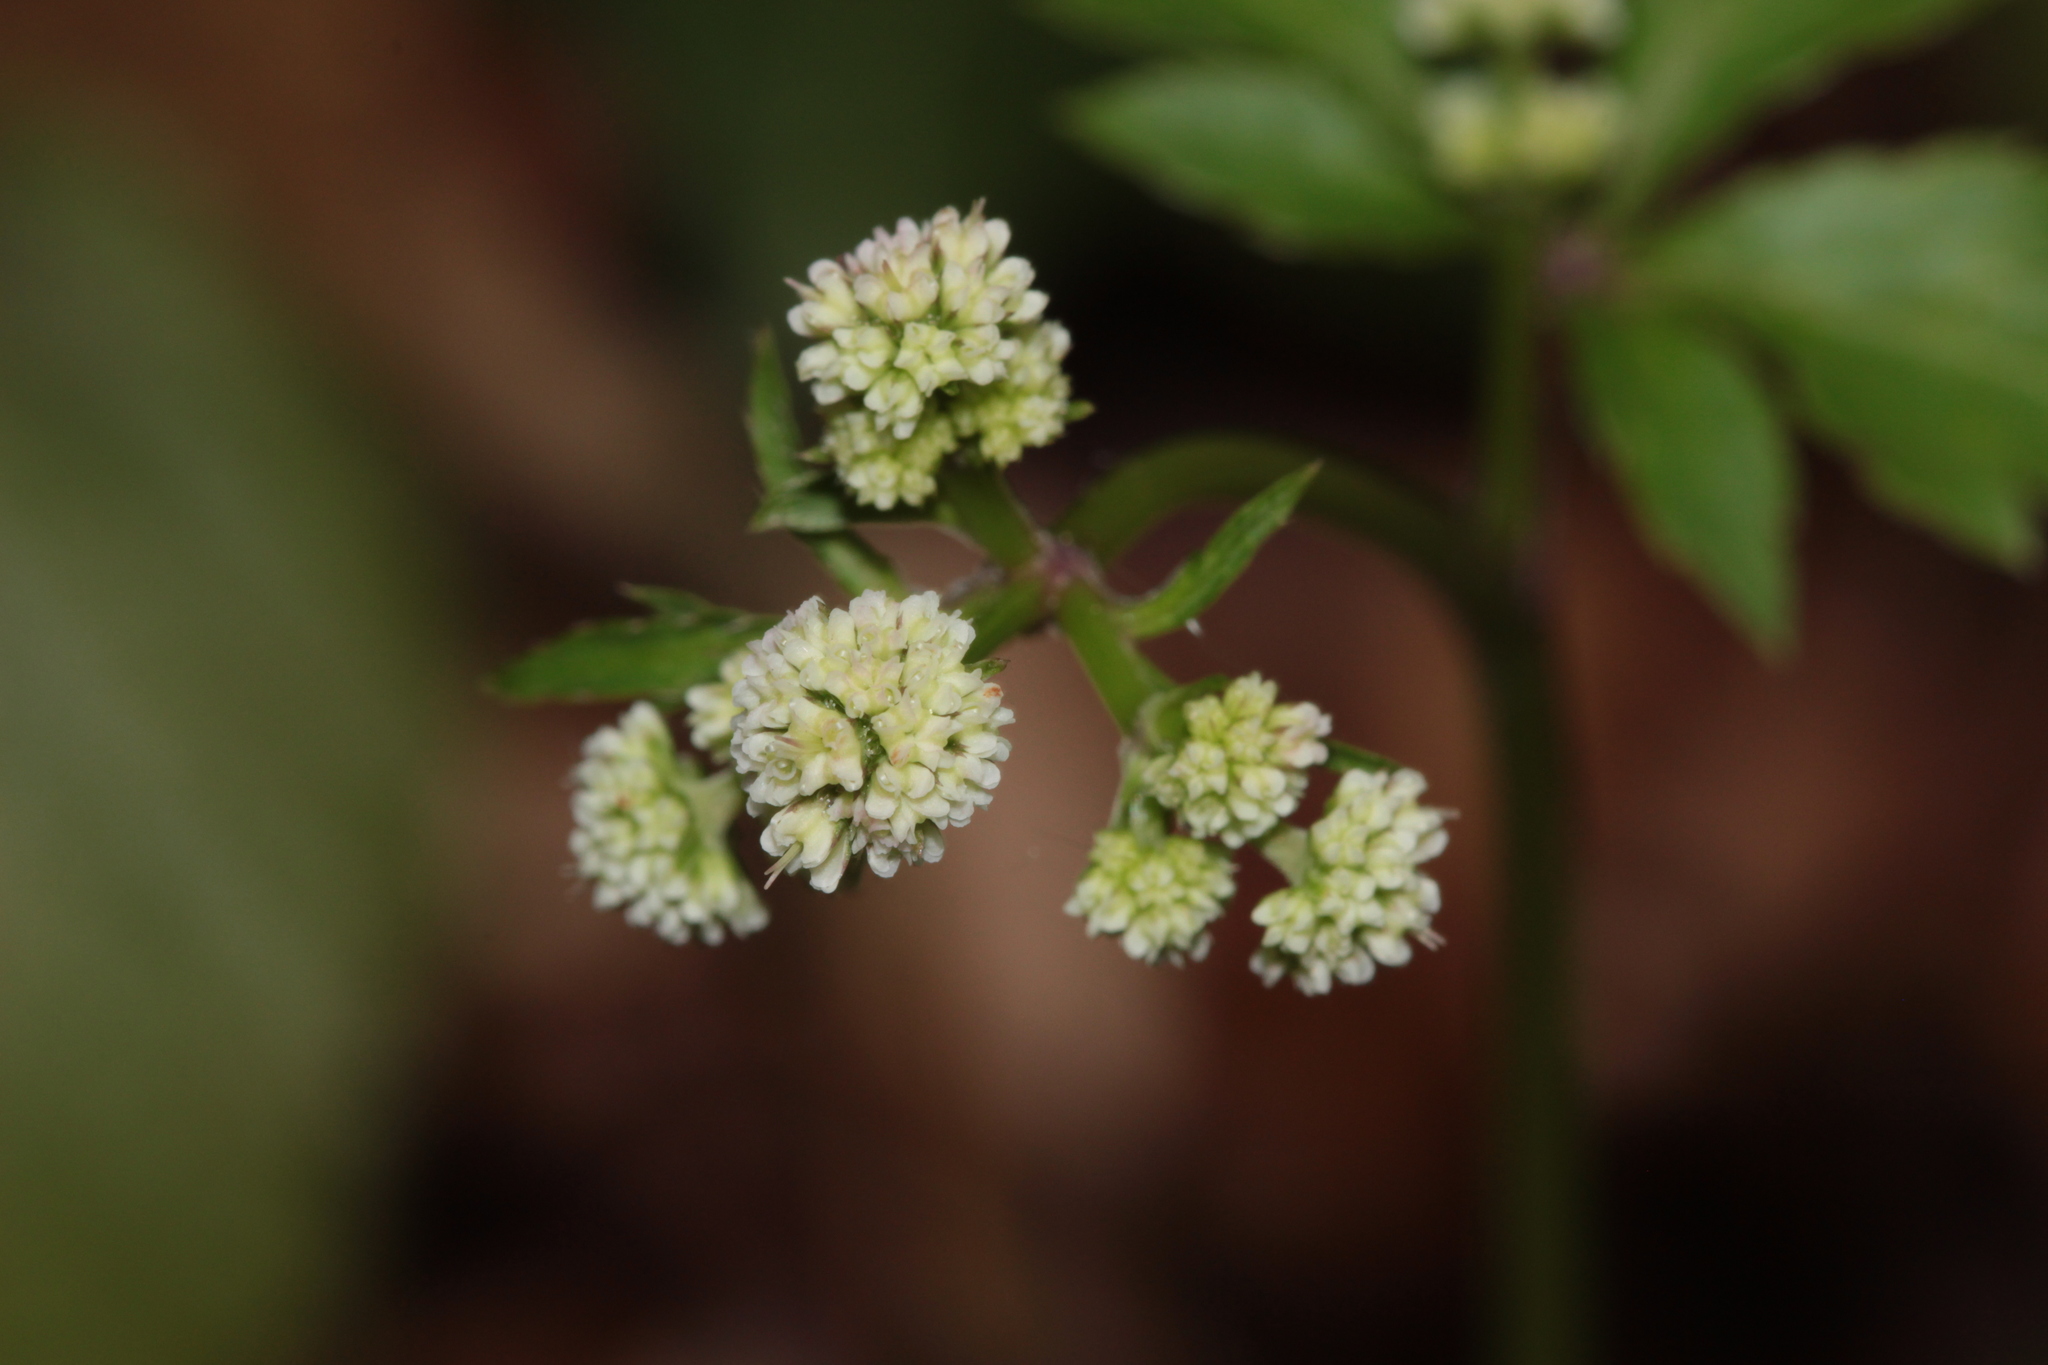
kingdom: Plantae
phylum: Tracheophyta
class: Magnoliopsida
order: Apiales
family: Apiaceae
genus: Sanicula
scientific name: Sanicula europaea
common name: Sanicle
